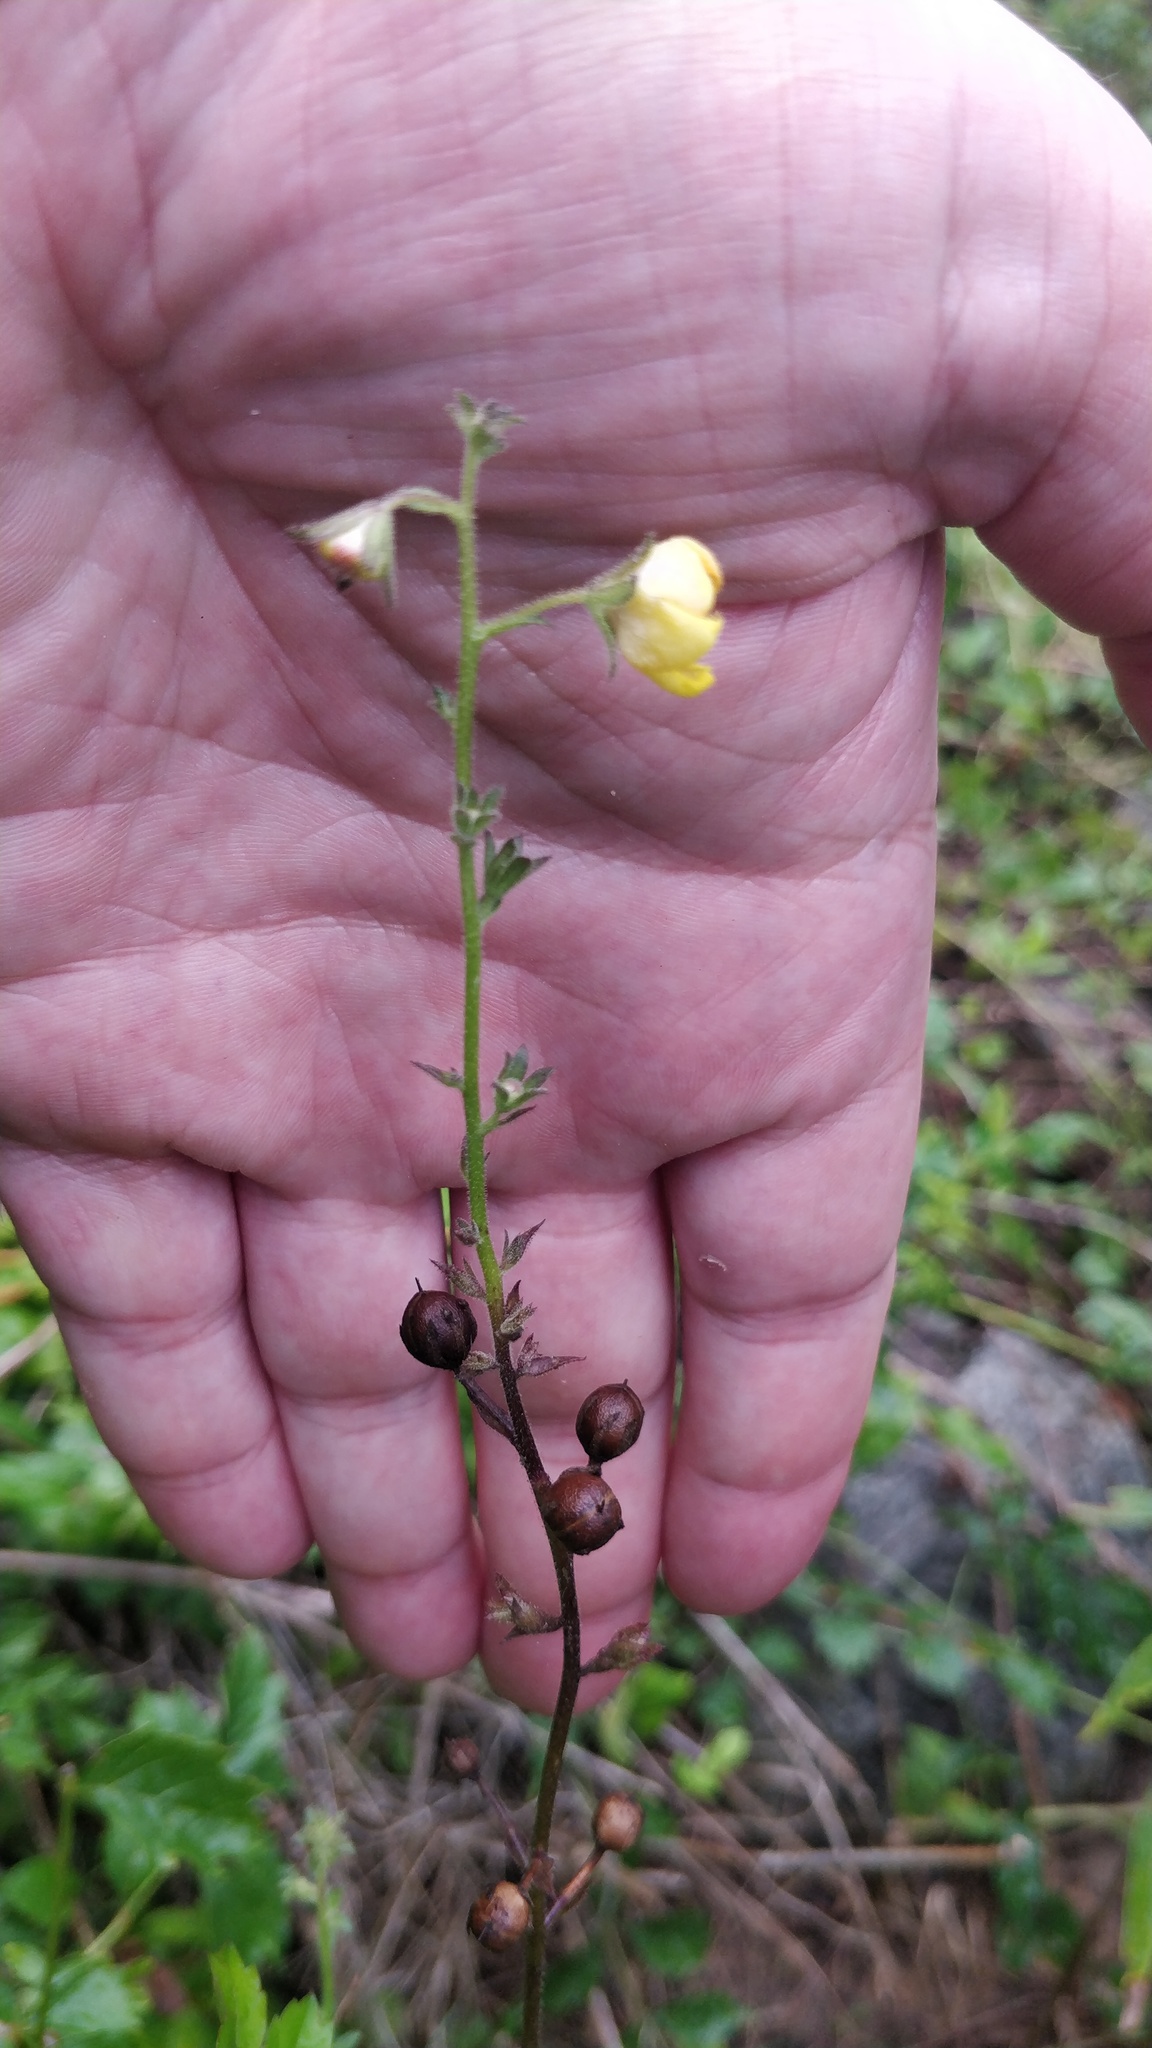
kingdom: Plantae
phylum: Tracheophyta
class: Magnoliopsida
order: Lamiales
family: Scrophulariaceae
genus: Verbascum
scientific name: Verbascum blattaria
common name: Moth mullein
